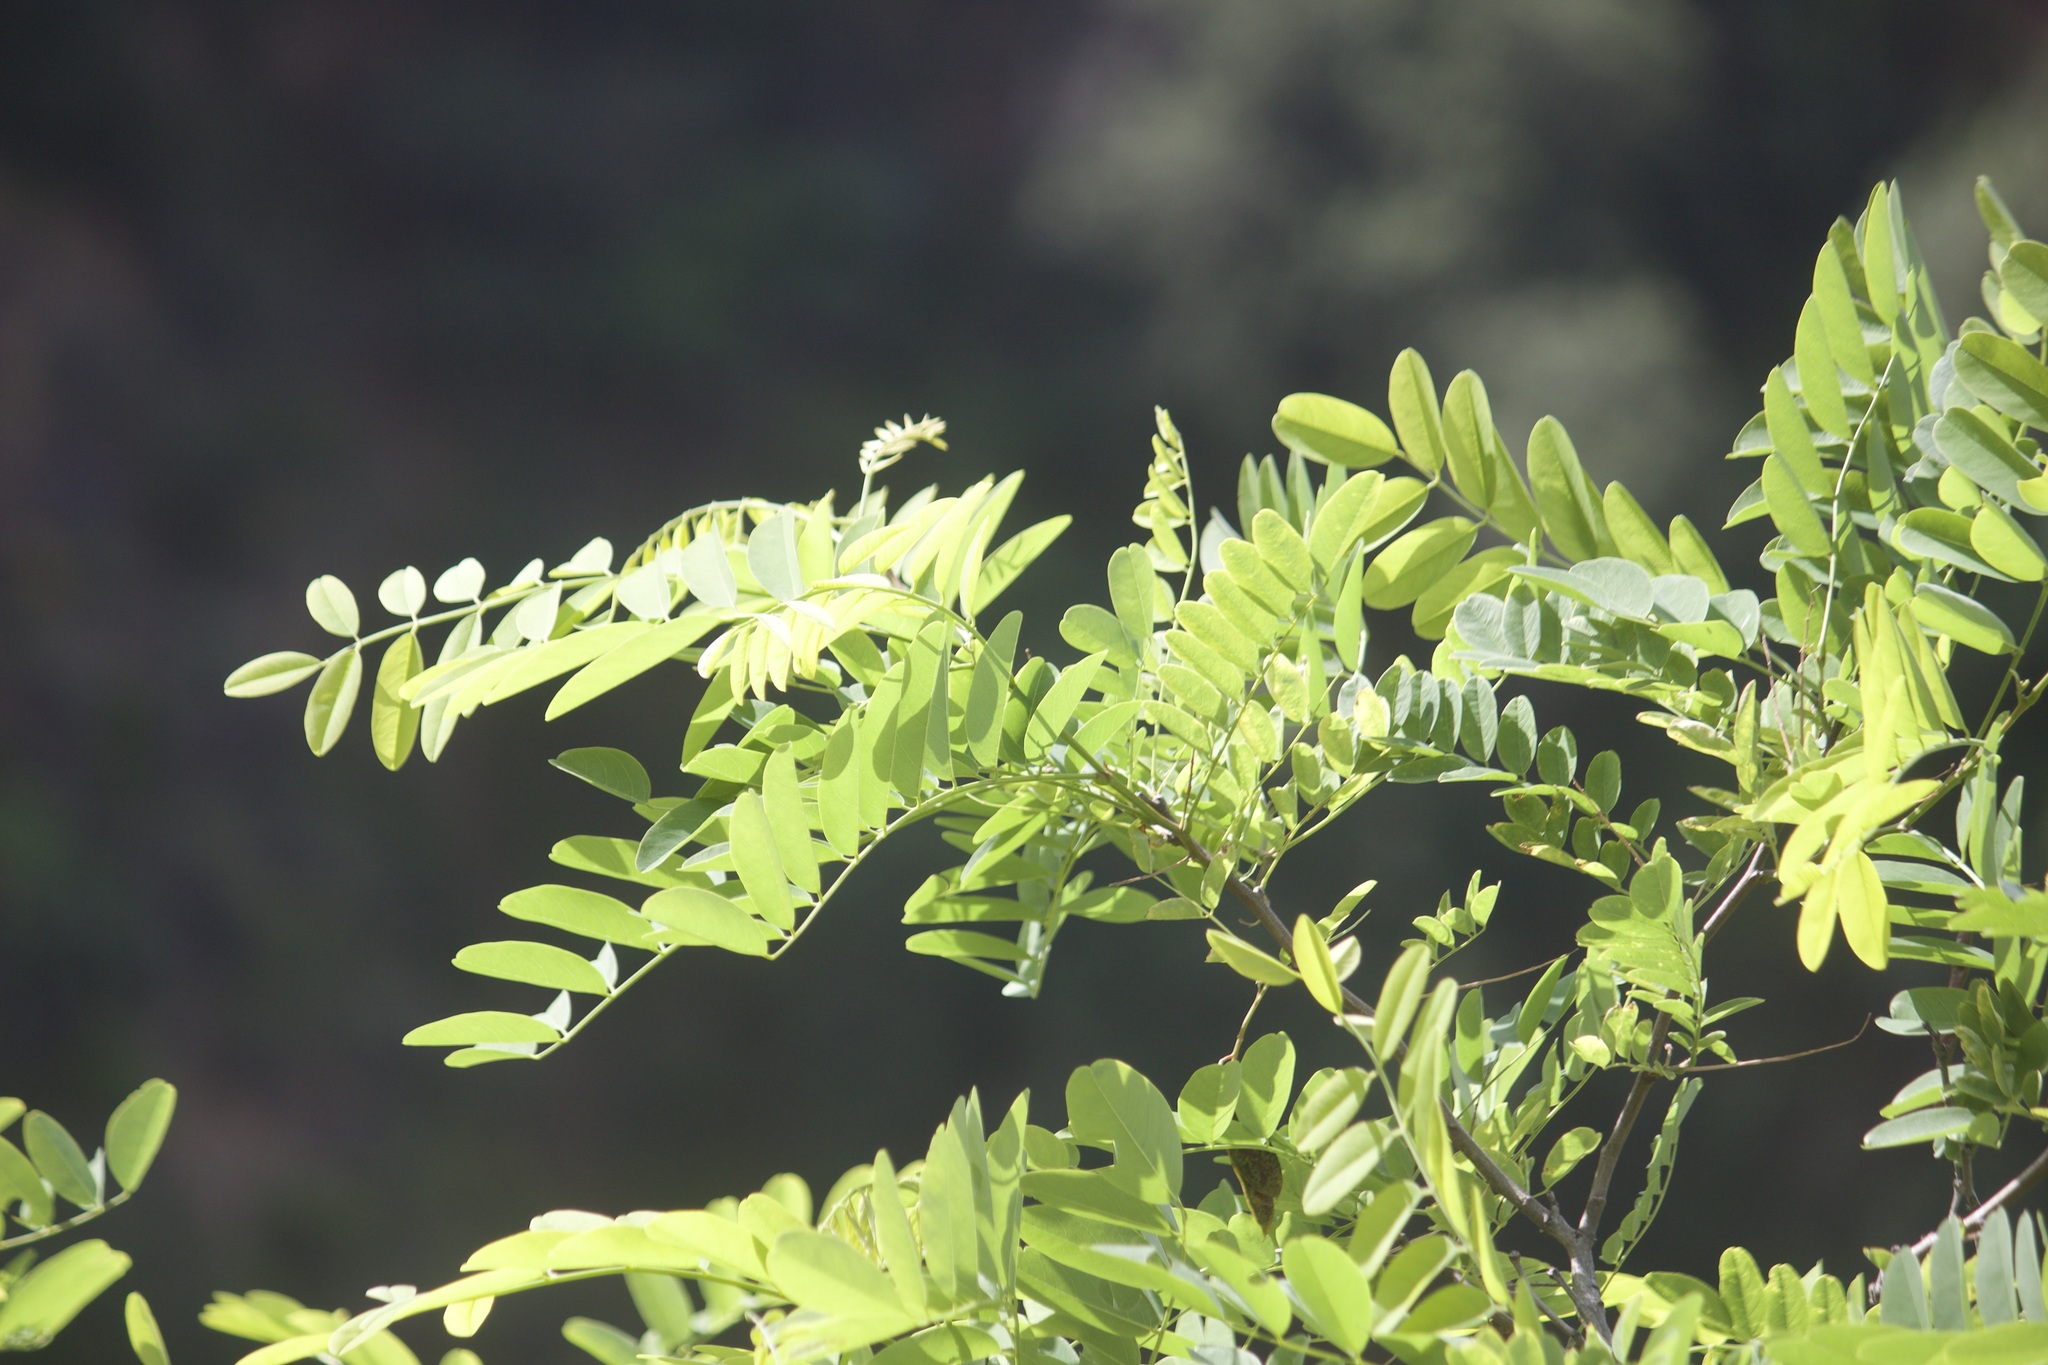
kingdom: Plantae
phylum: Tracheophyta
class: Magnoliopsida
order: Fabales
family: Fabaceae
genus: Robinia
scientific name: Robinia pseudoacacia
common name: Black locust
